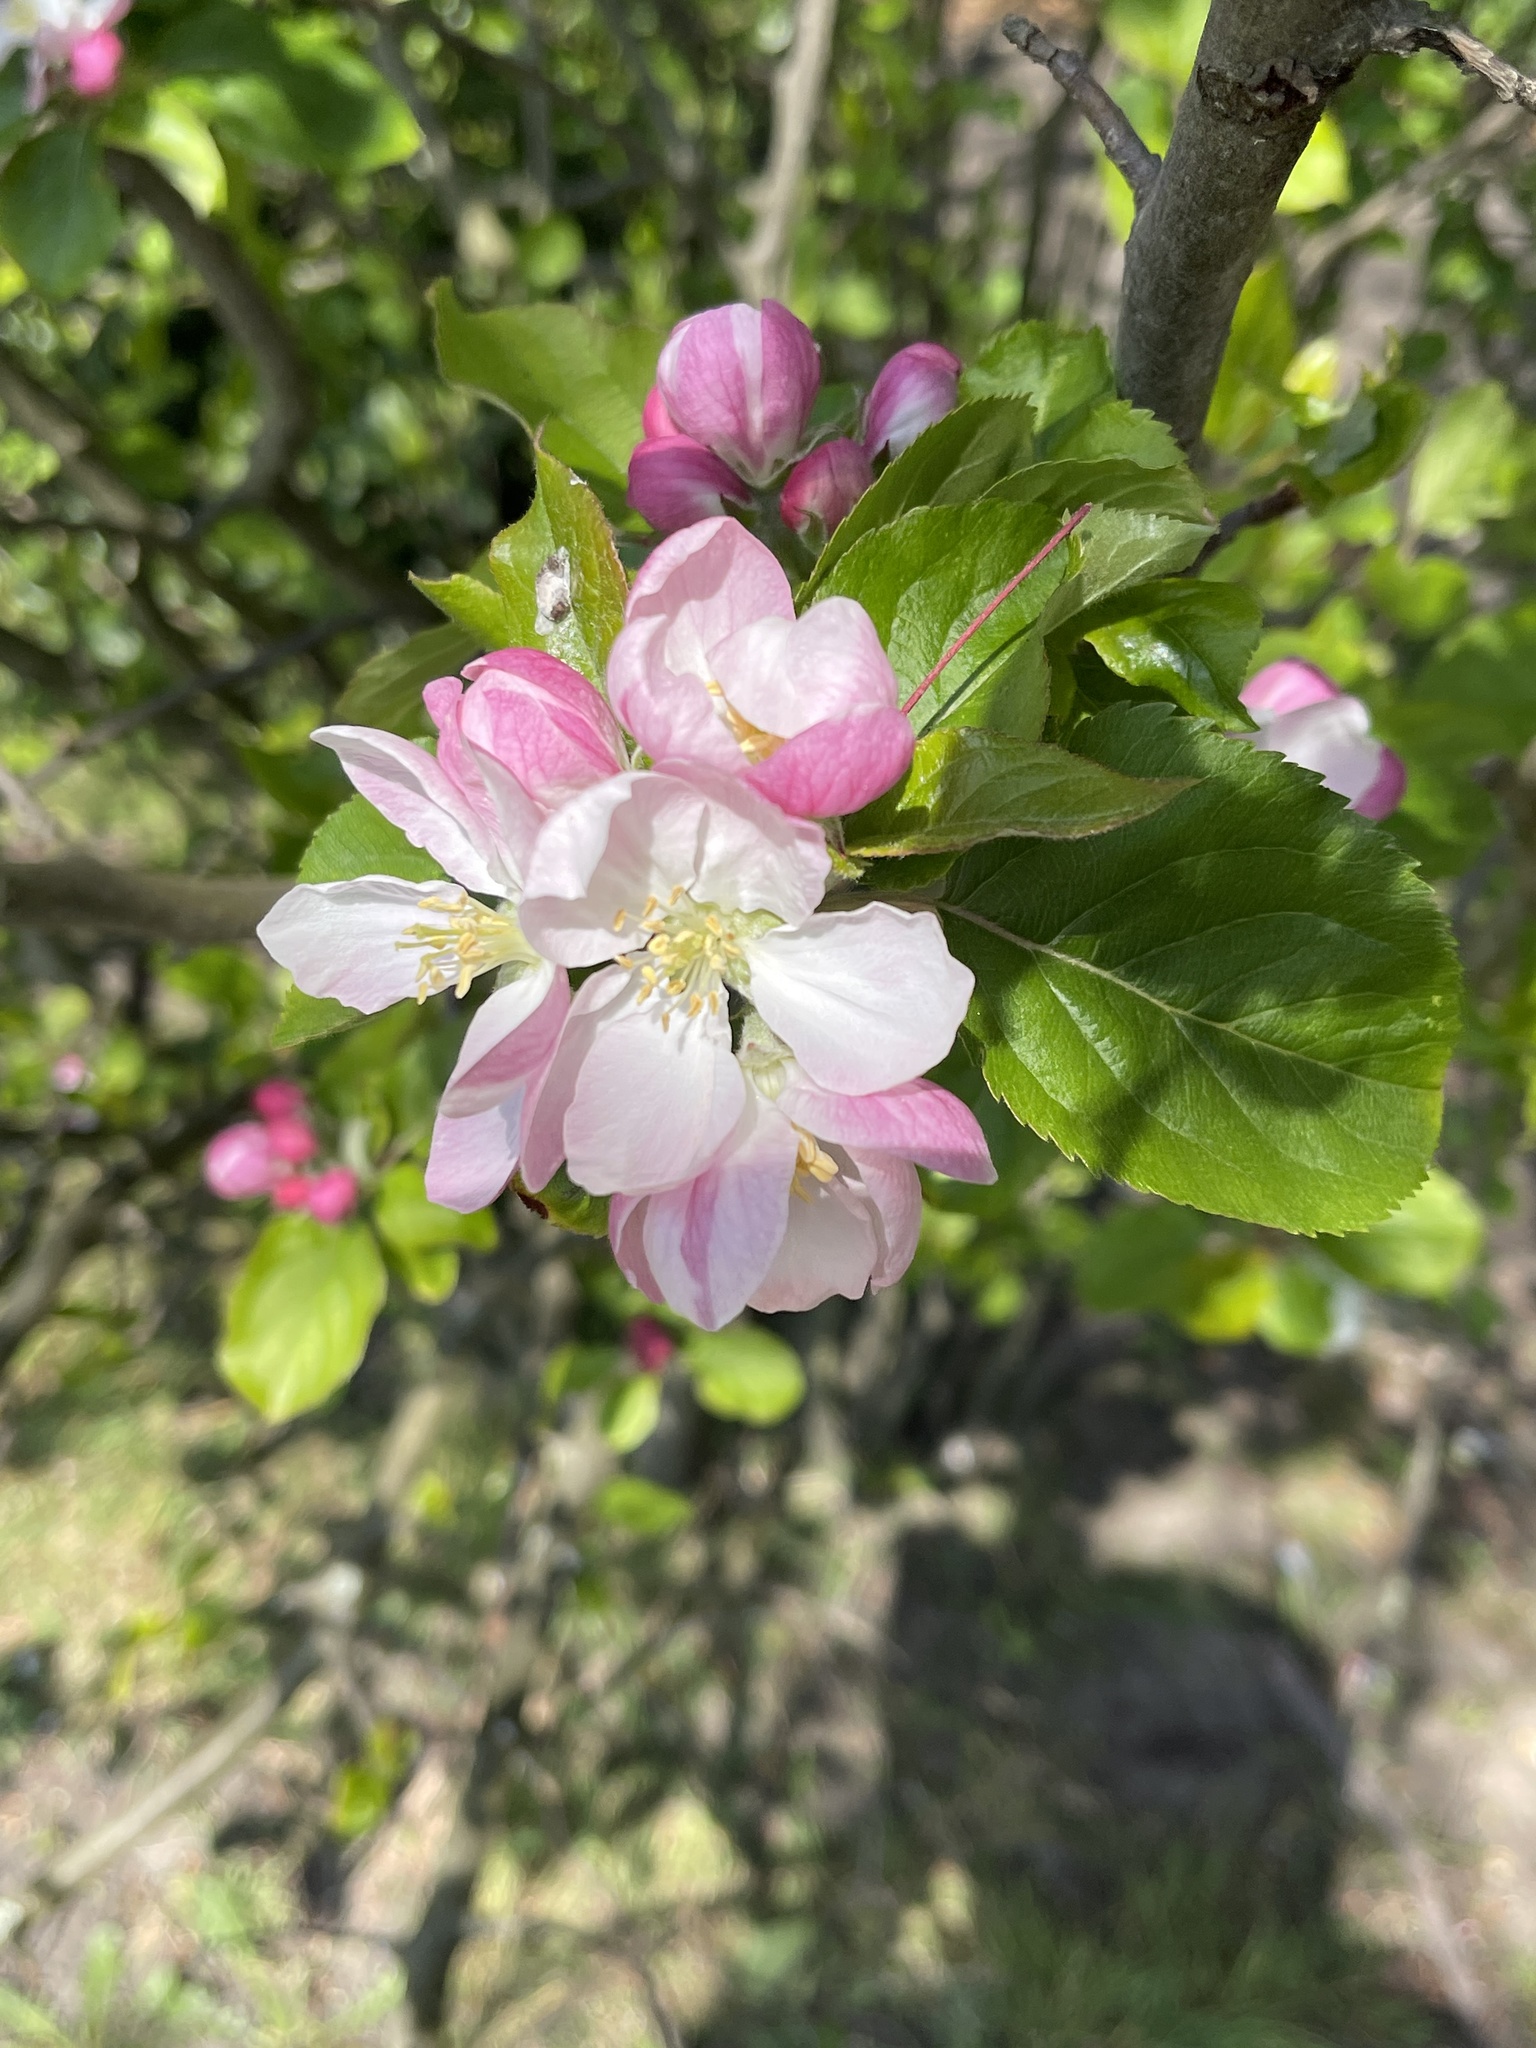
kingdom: Plantae
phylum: Tracheophyta
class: Magnoliopsida
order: Rosales
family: Rosaceae
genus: Malus
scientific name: Malus domestica
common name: Apple
